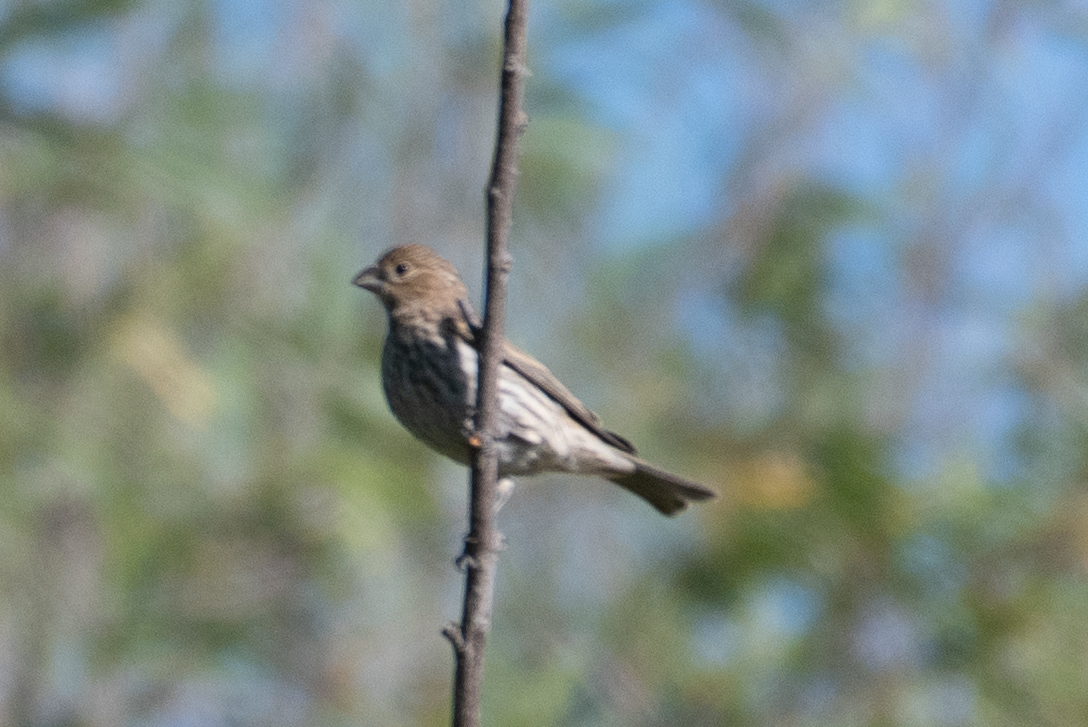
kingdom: Animalia
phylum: Chordata
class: Aves
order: Passeriformes
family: Fringillidae
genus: Haemorhous
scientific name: Haemorhous mexicanus
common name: House finch
